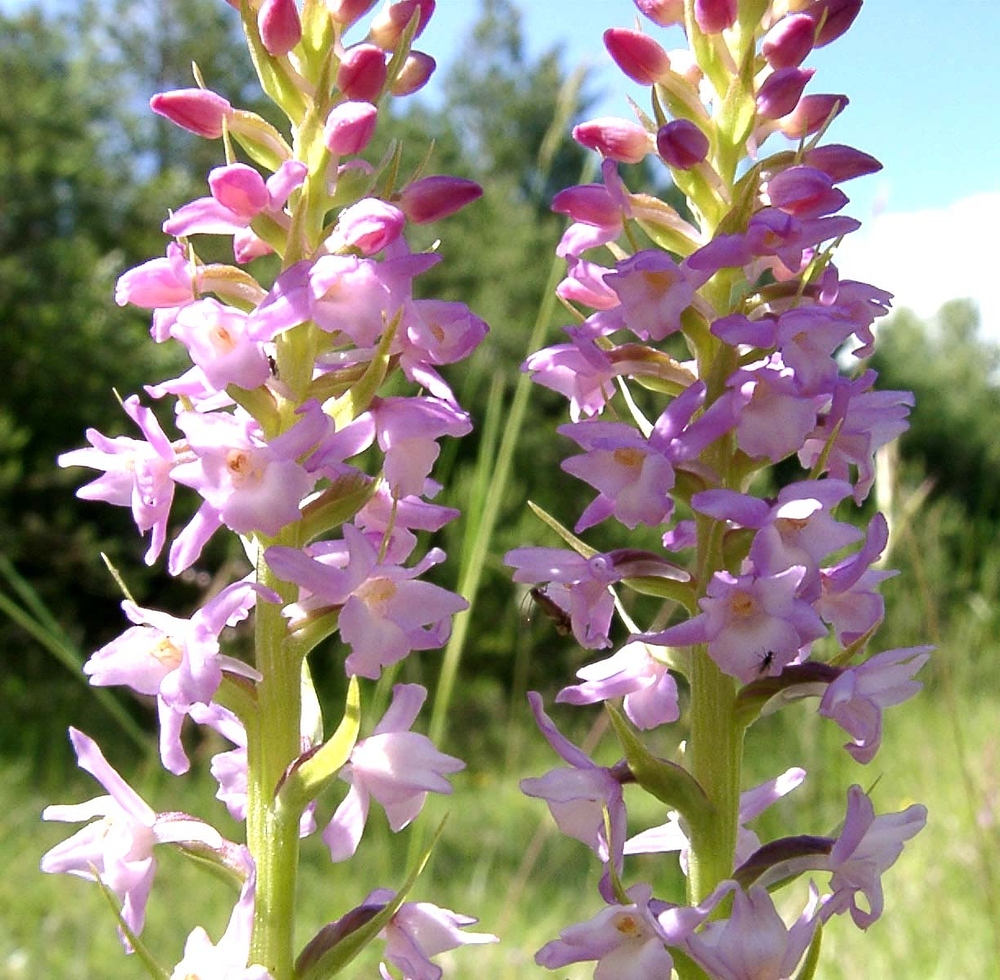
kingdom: Plantae
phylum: Tracheophyta
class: Liliopsida
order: Asparagales
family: Orchidaceae
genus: Gymnadenia
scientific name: Gymnadenia odoratissima
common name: Scented gymnadenia
